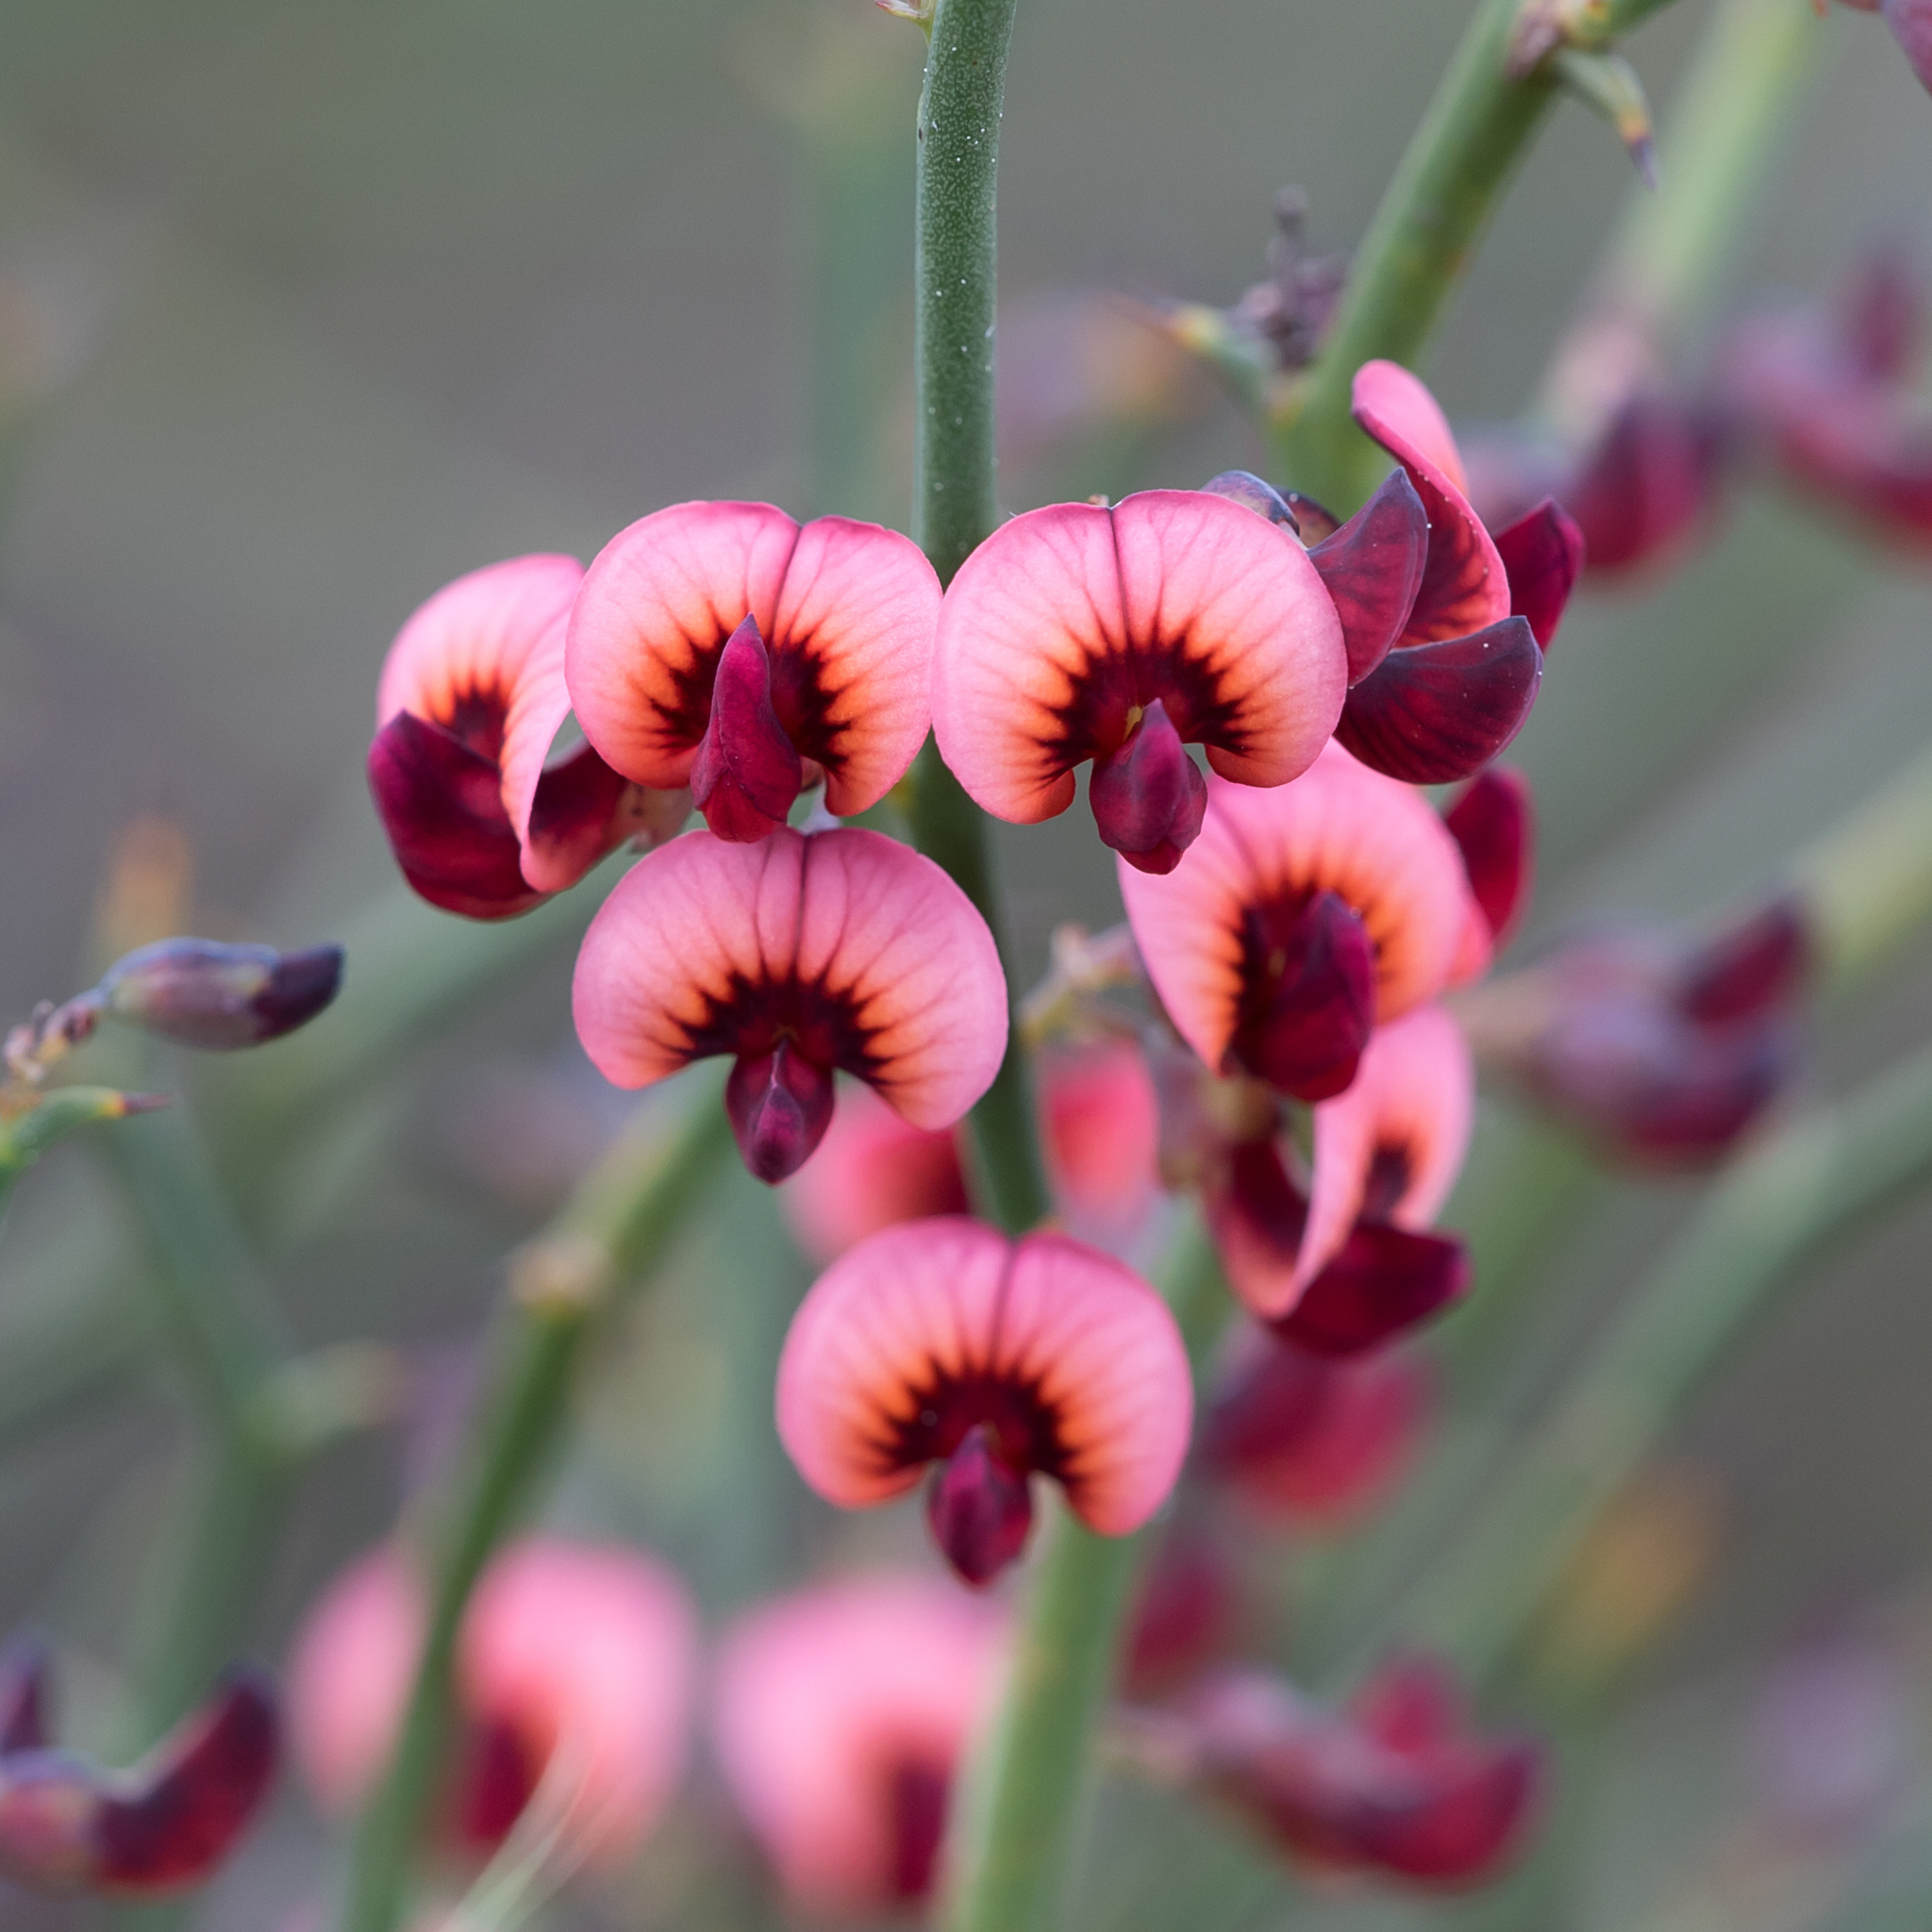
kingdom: Plantae
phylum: Tracheophyta
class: Magnoliopsida
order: Fabales
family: Fabaceae
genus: Daviesia
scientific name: Daviesia brevifolia
